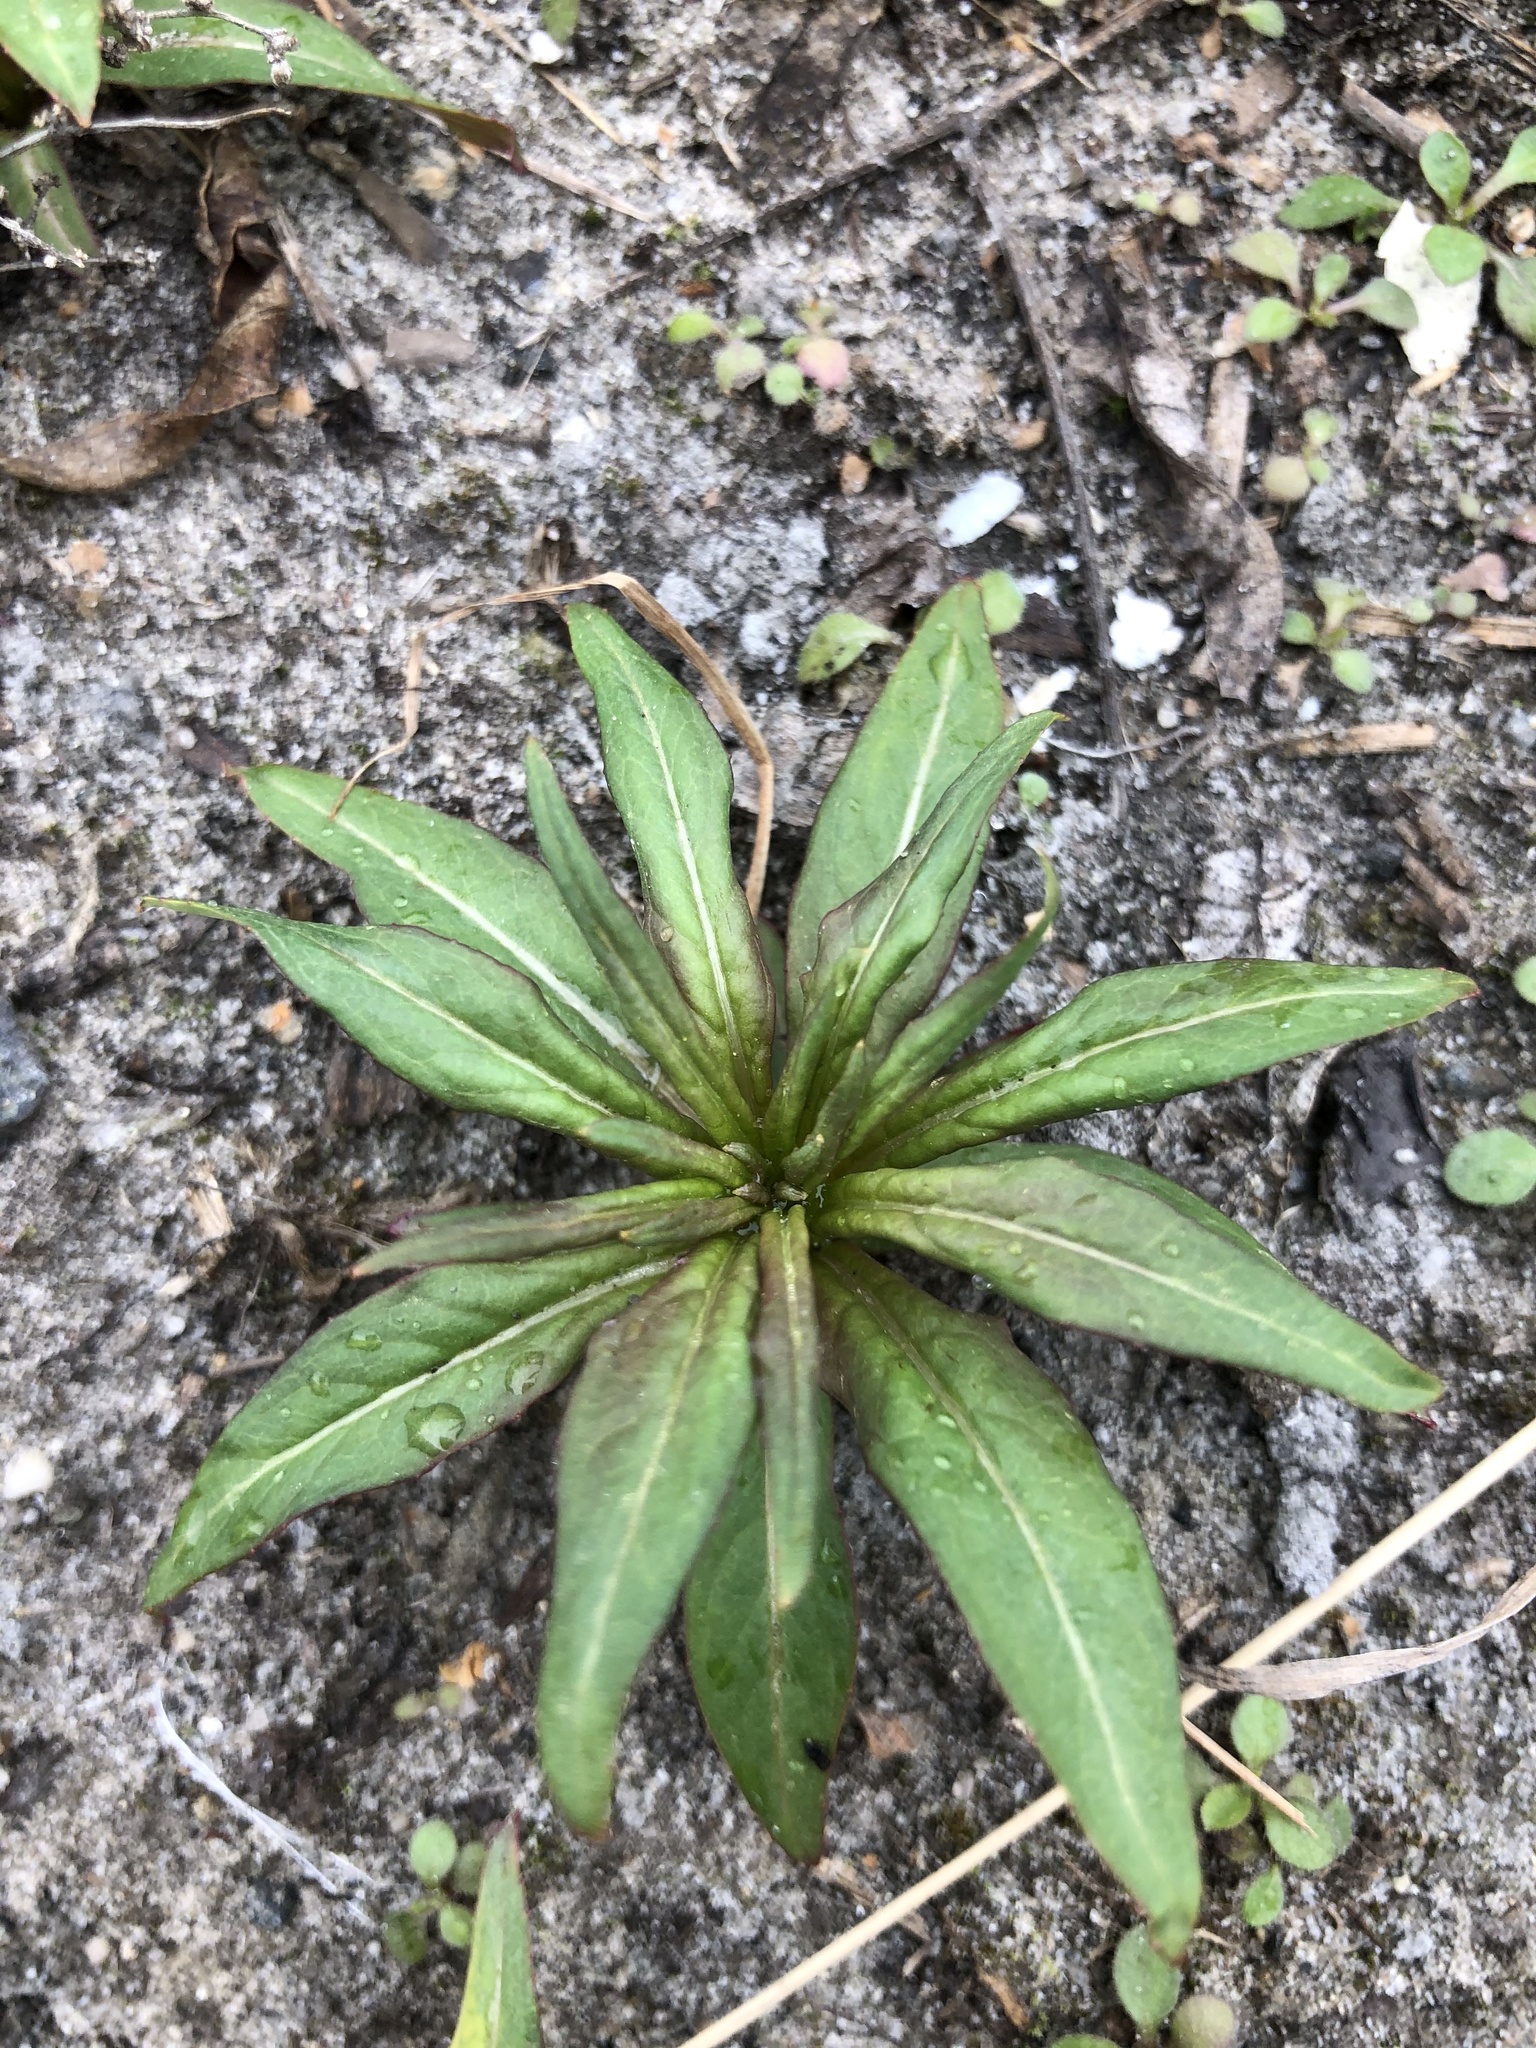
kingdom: Plantae
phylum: Tracheophyta
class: Magnoliopsida
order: Myrtales
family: Onagraceae
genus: Chamaenerion
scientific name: Chamaenerion angustifolium
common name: Fireweed
